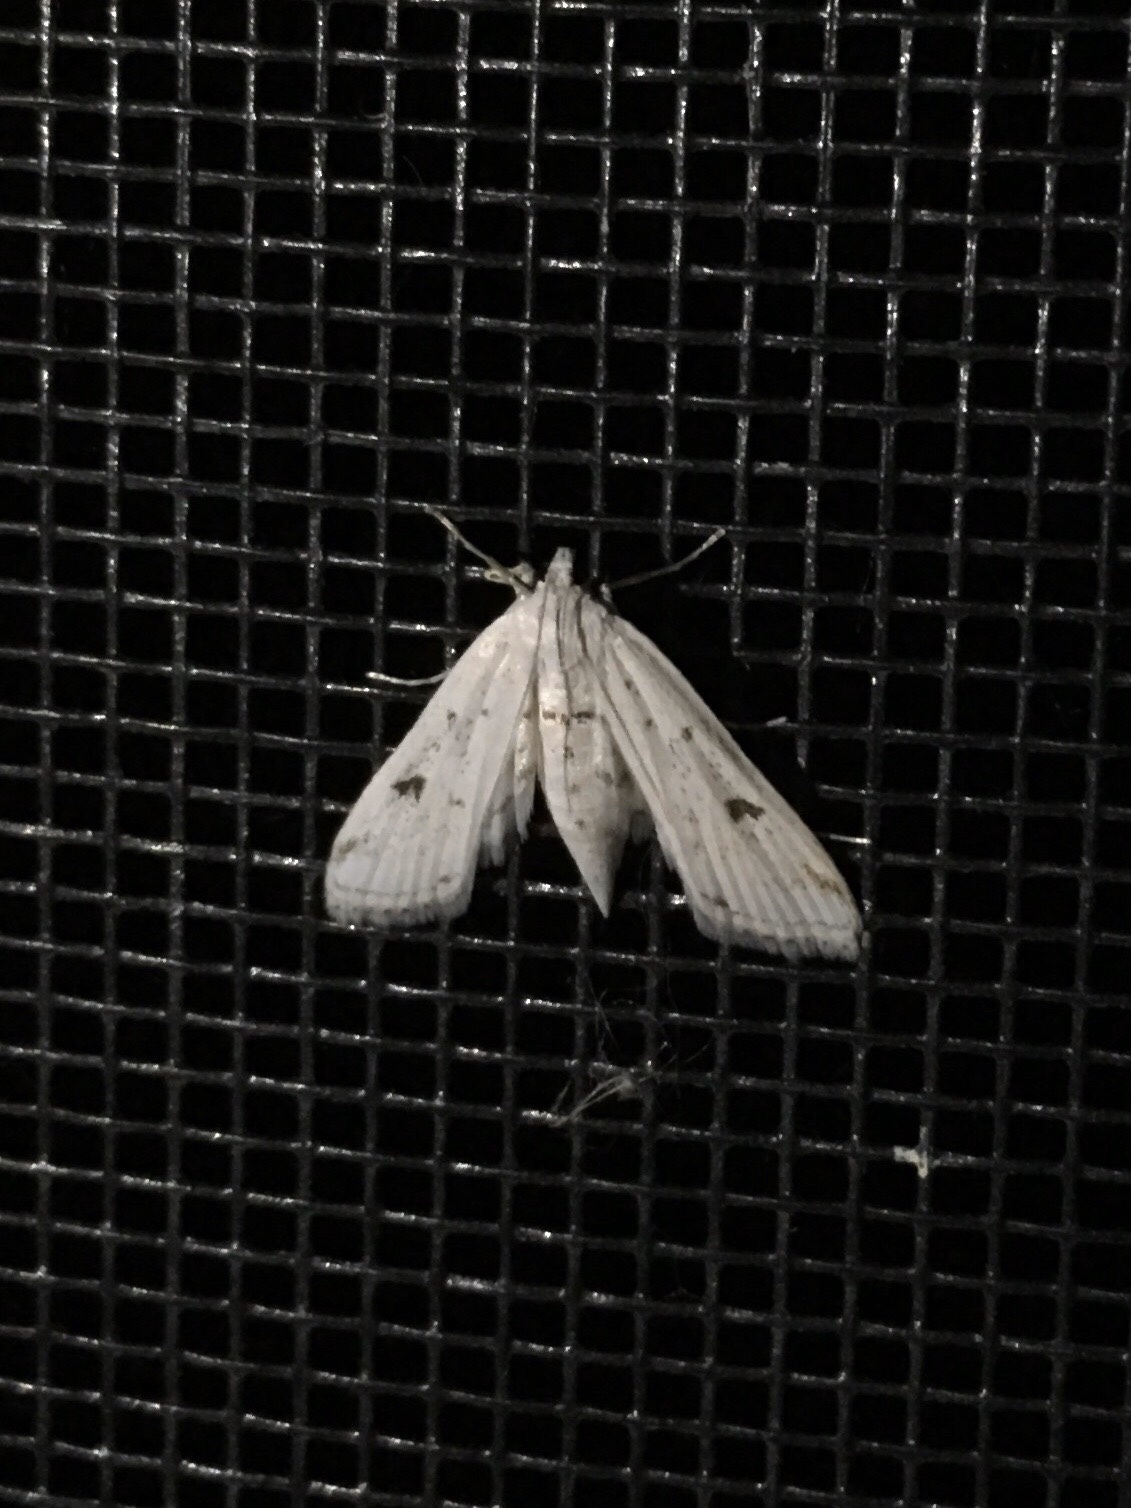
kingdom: Animalia
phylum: Arthropoda
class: Insecta
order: Lepidoptera
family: Crambidae
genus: Parapoynx
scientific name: Parapoynx allionealis
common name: Bladderwort casemaker
